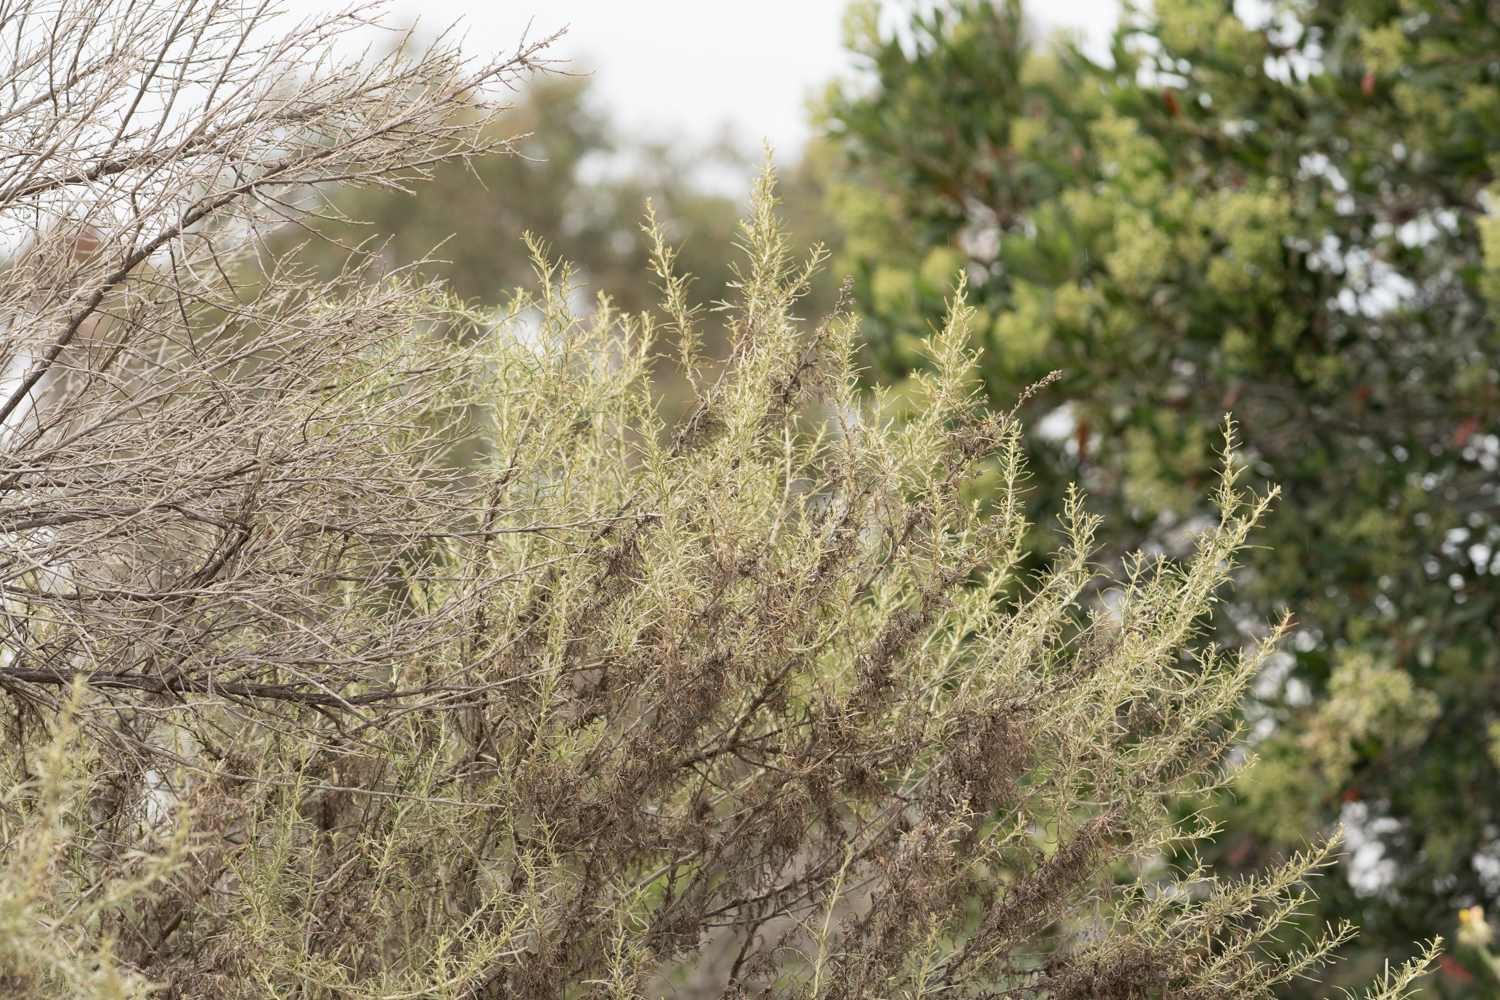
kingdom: Plantae
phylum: Tracheophyta
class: Magnoliopsida
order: Asterales
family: Asteraceae
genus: Artemisia
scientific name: Artemisia californica
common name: California sagebrush
